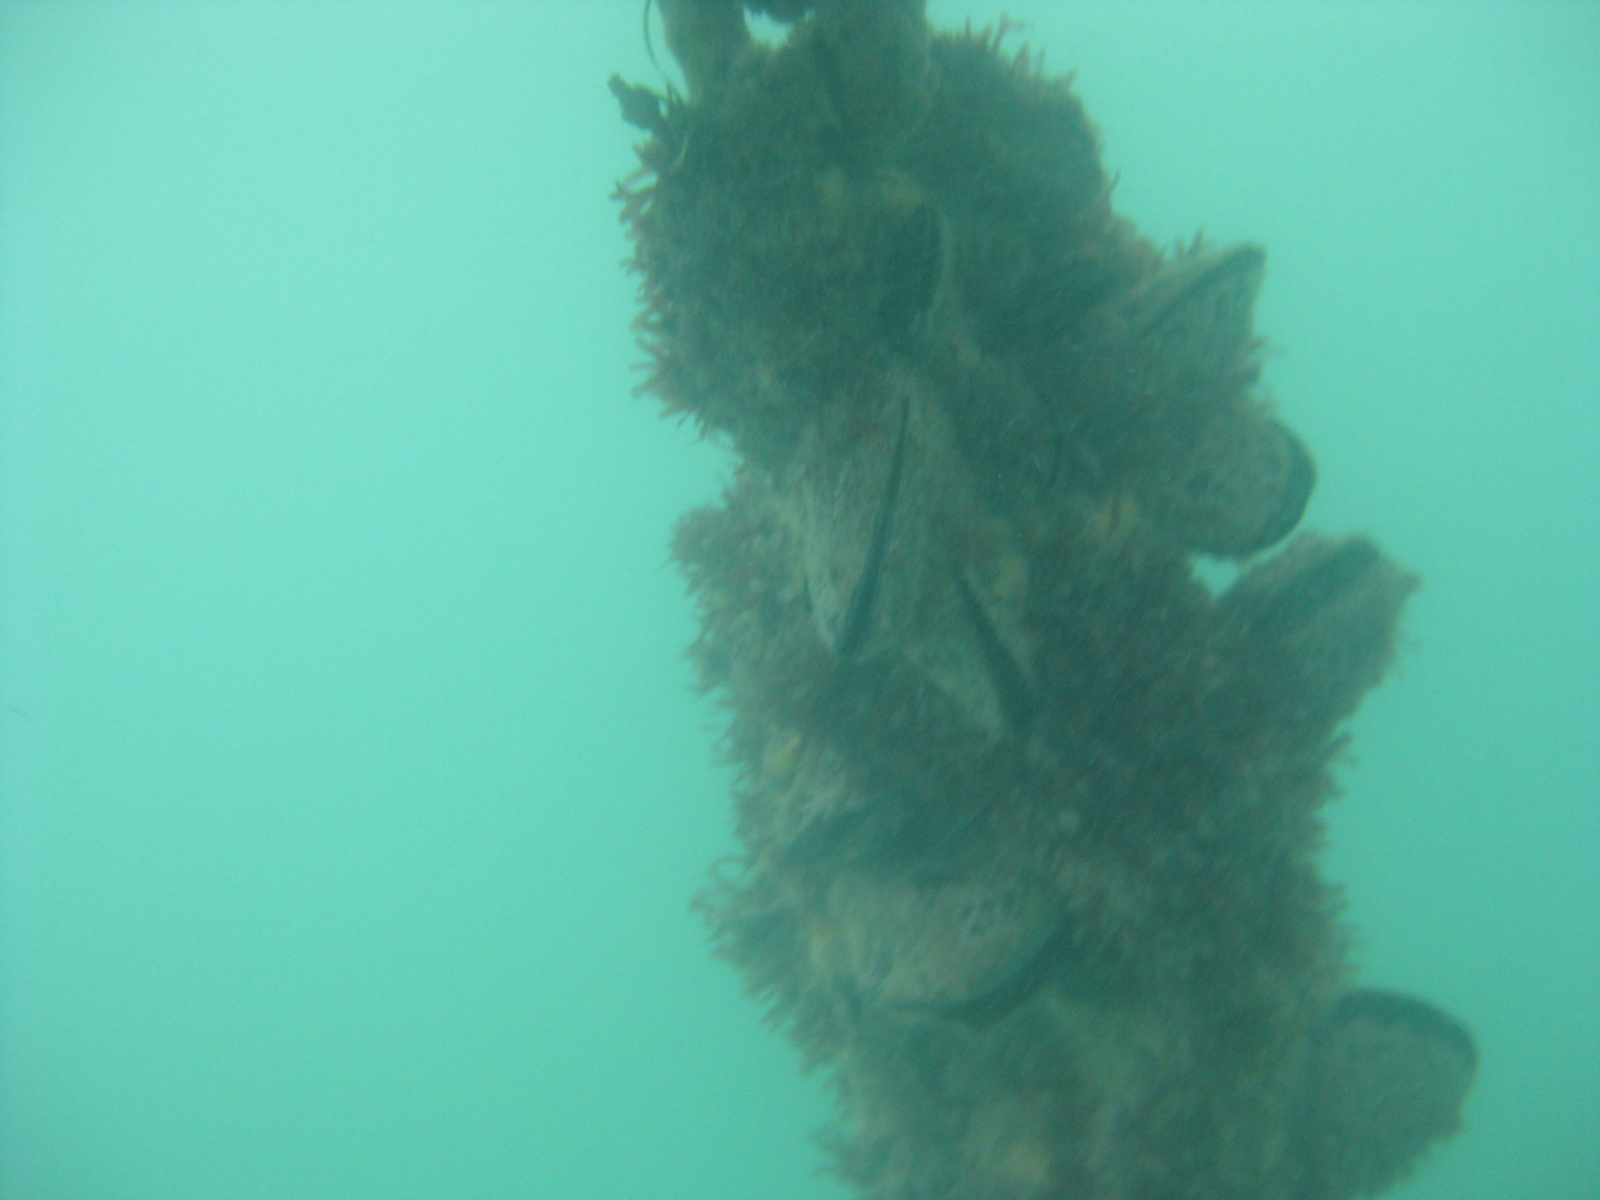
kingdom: Animalia
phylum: Mollusca
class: Bivalvia
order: Mytilida
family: Mytilidae
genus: Perna
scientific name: Perna canaliculus
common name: New zealand greenshelltm
